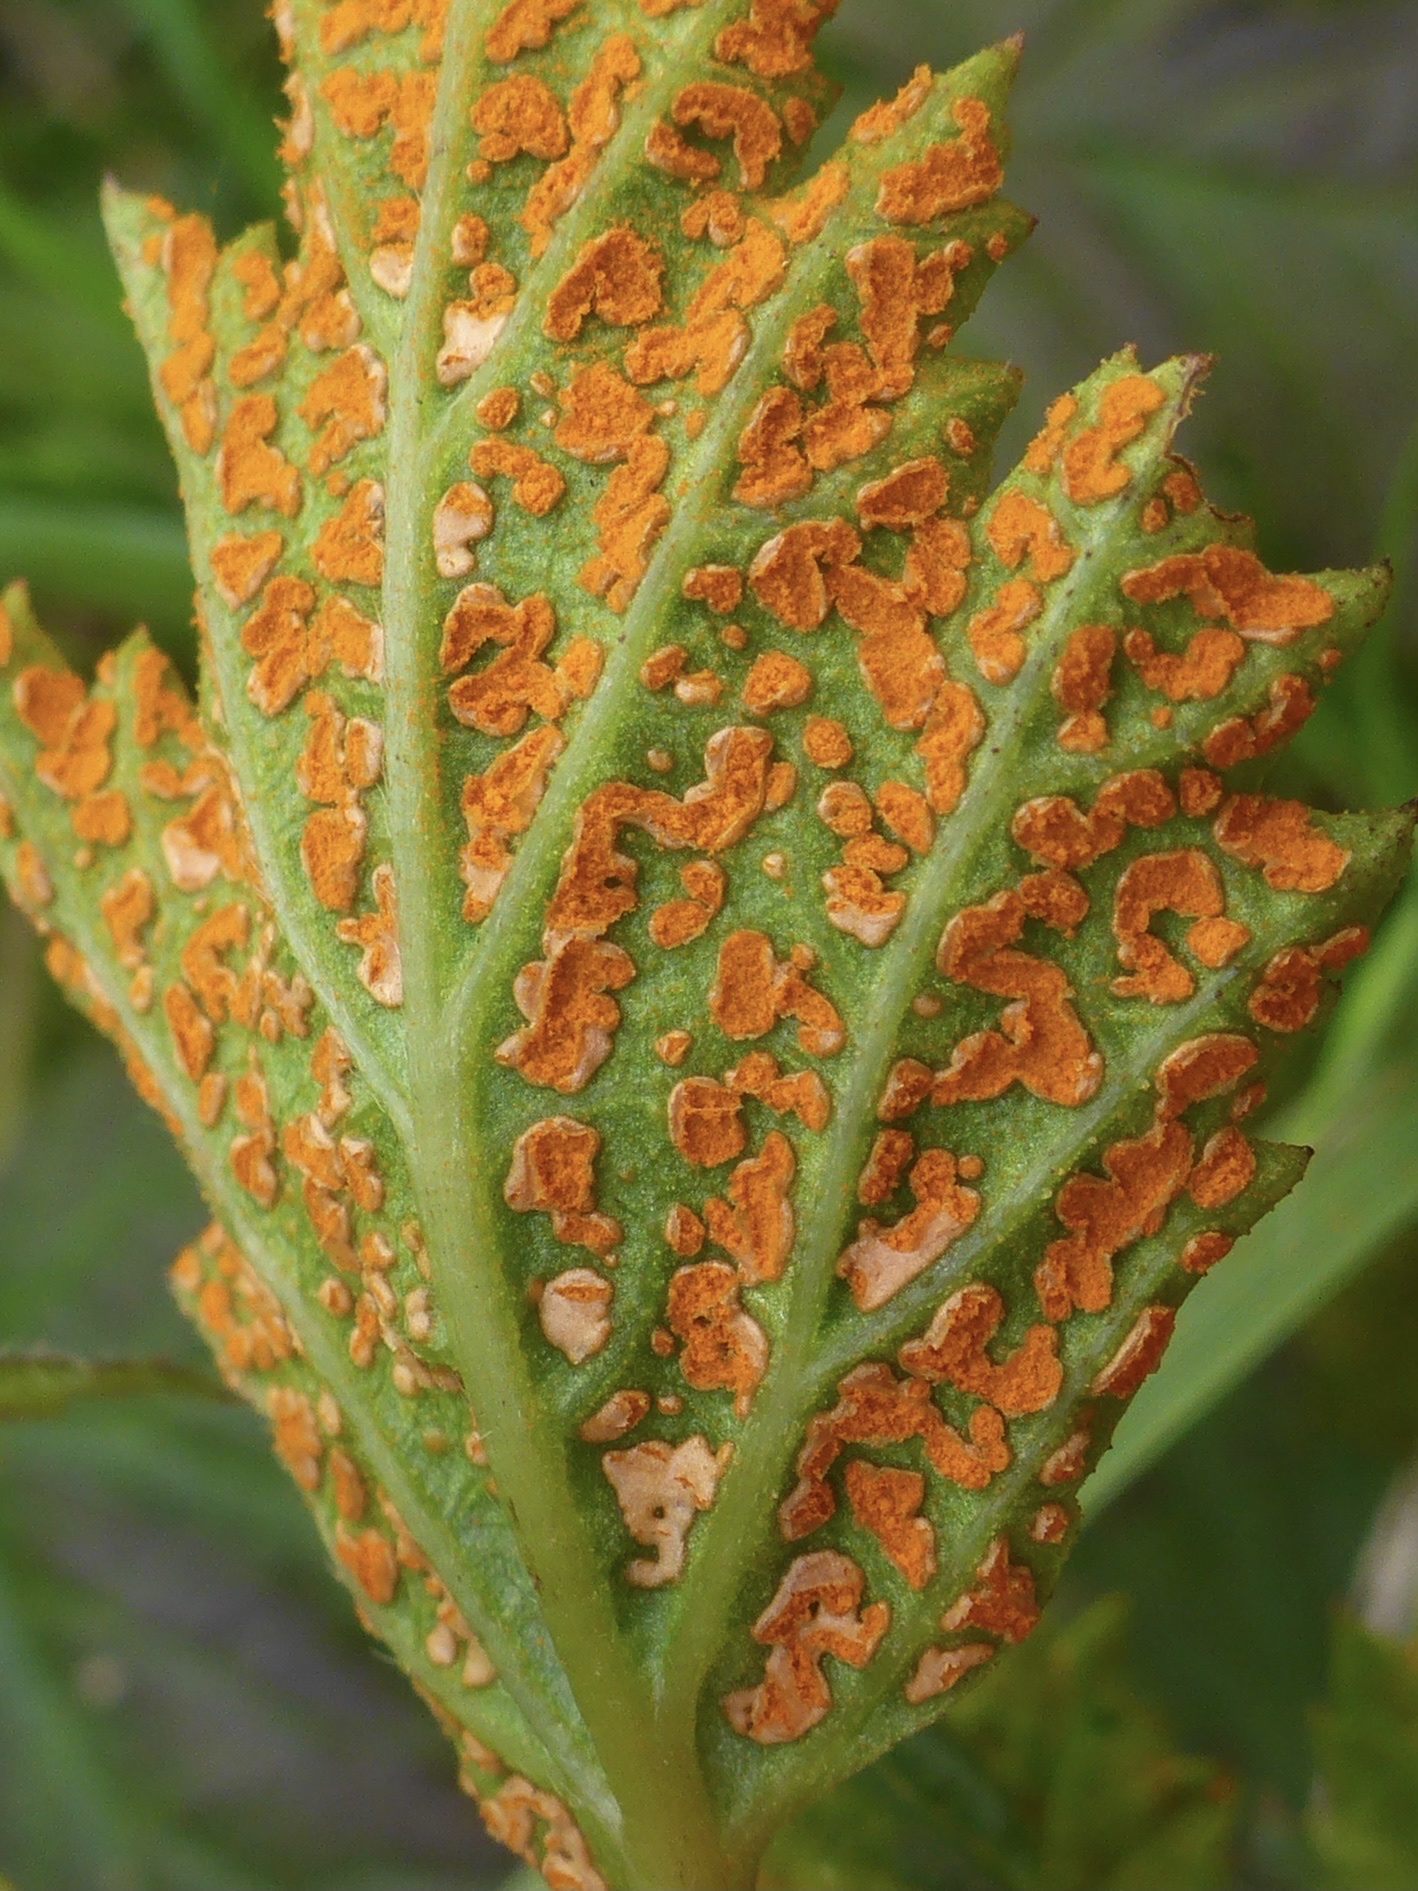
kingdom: Fungi
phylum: Basidiomycota
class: Pucciniomycetes
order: Pucciniales
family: Phragmidiaceae
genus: Arthuriomyces
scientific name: Arthuriomyces peckianus
